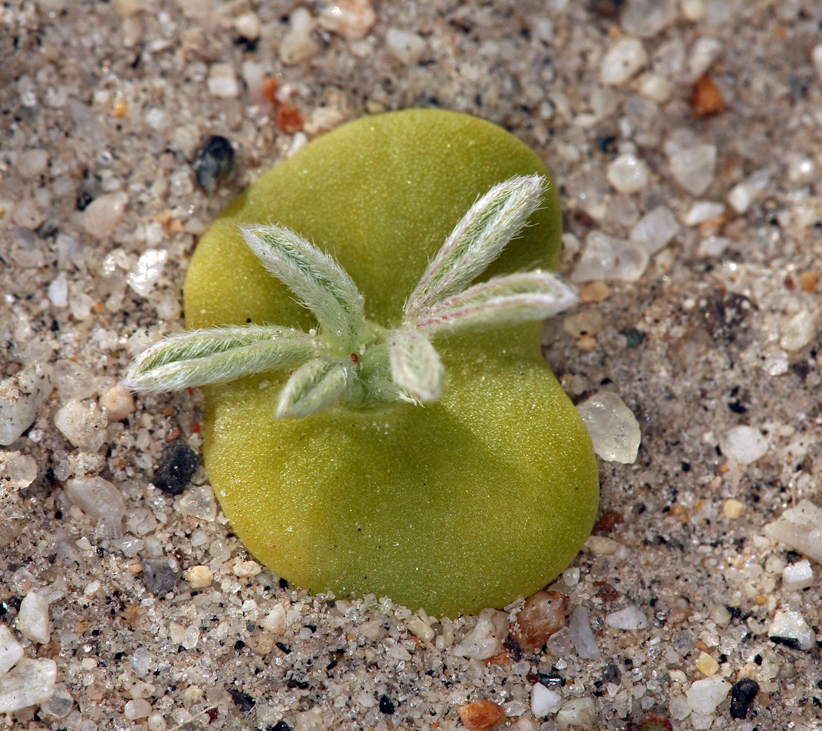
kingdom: Plantae
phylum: Tracheophyta
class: Magnoliopsida
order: Fabales
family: Fabaceae
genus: Lupinus
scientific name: Lupinus
